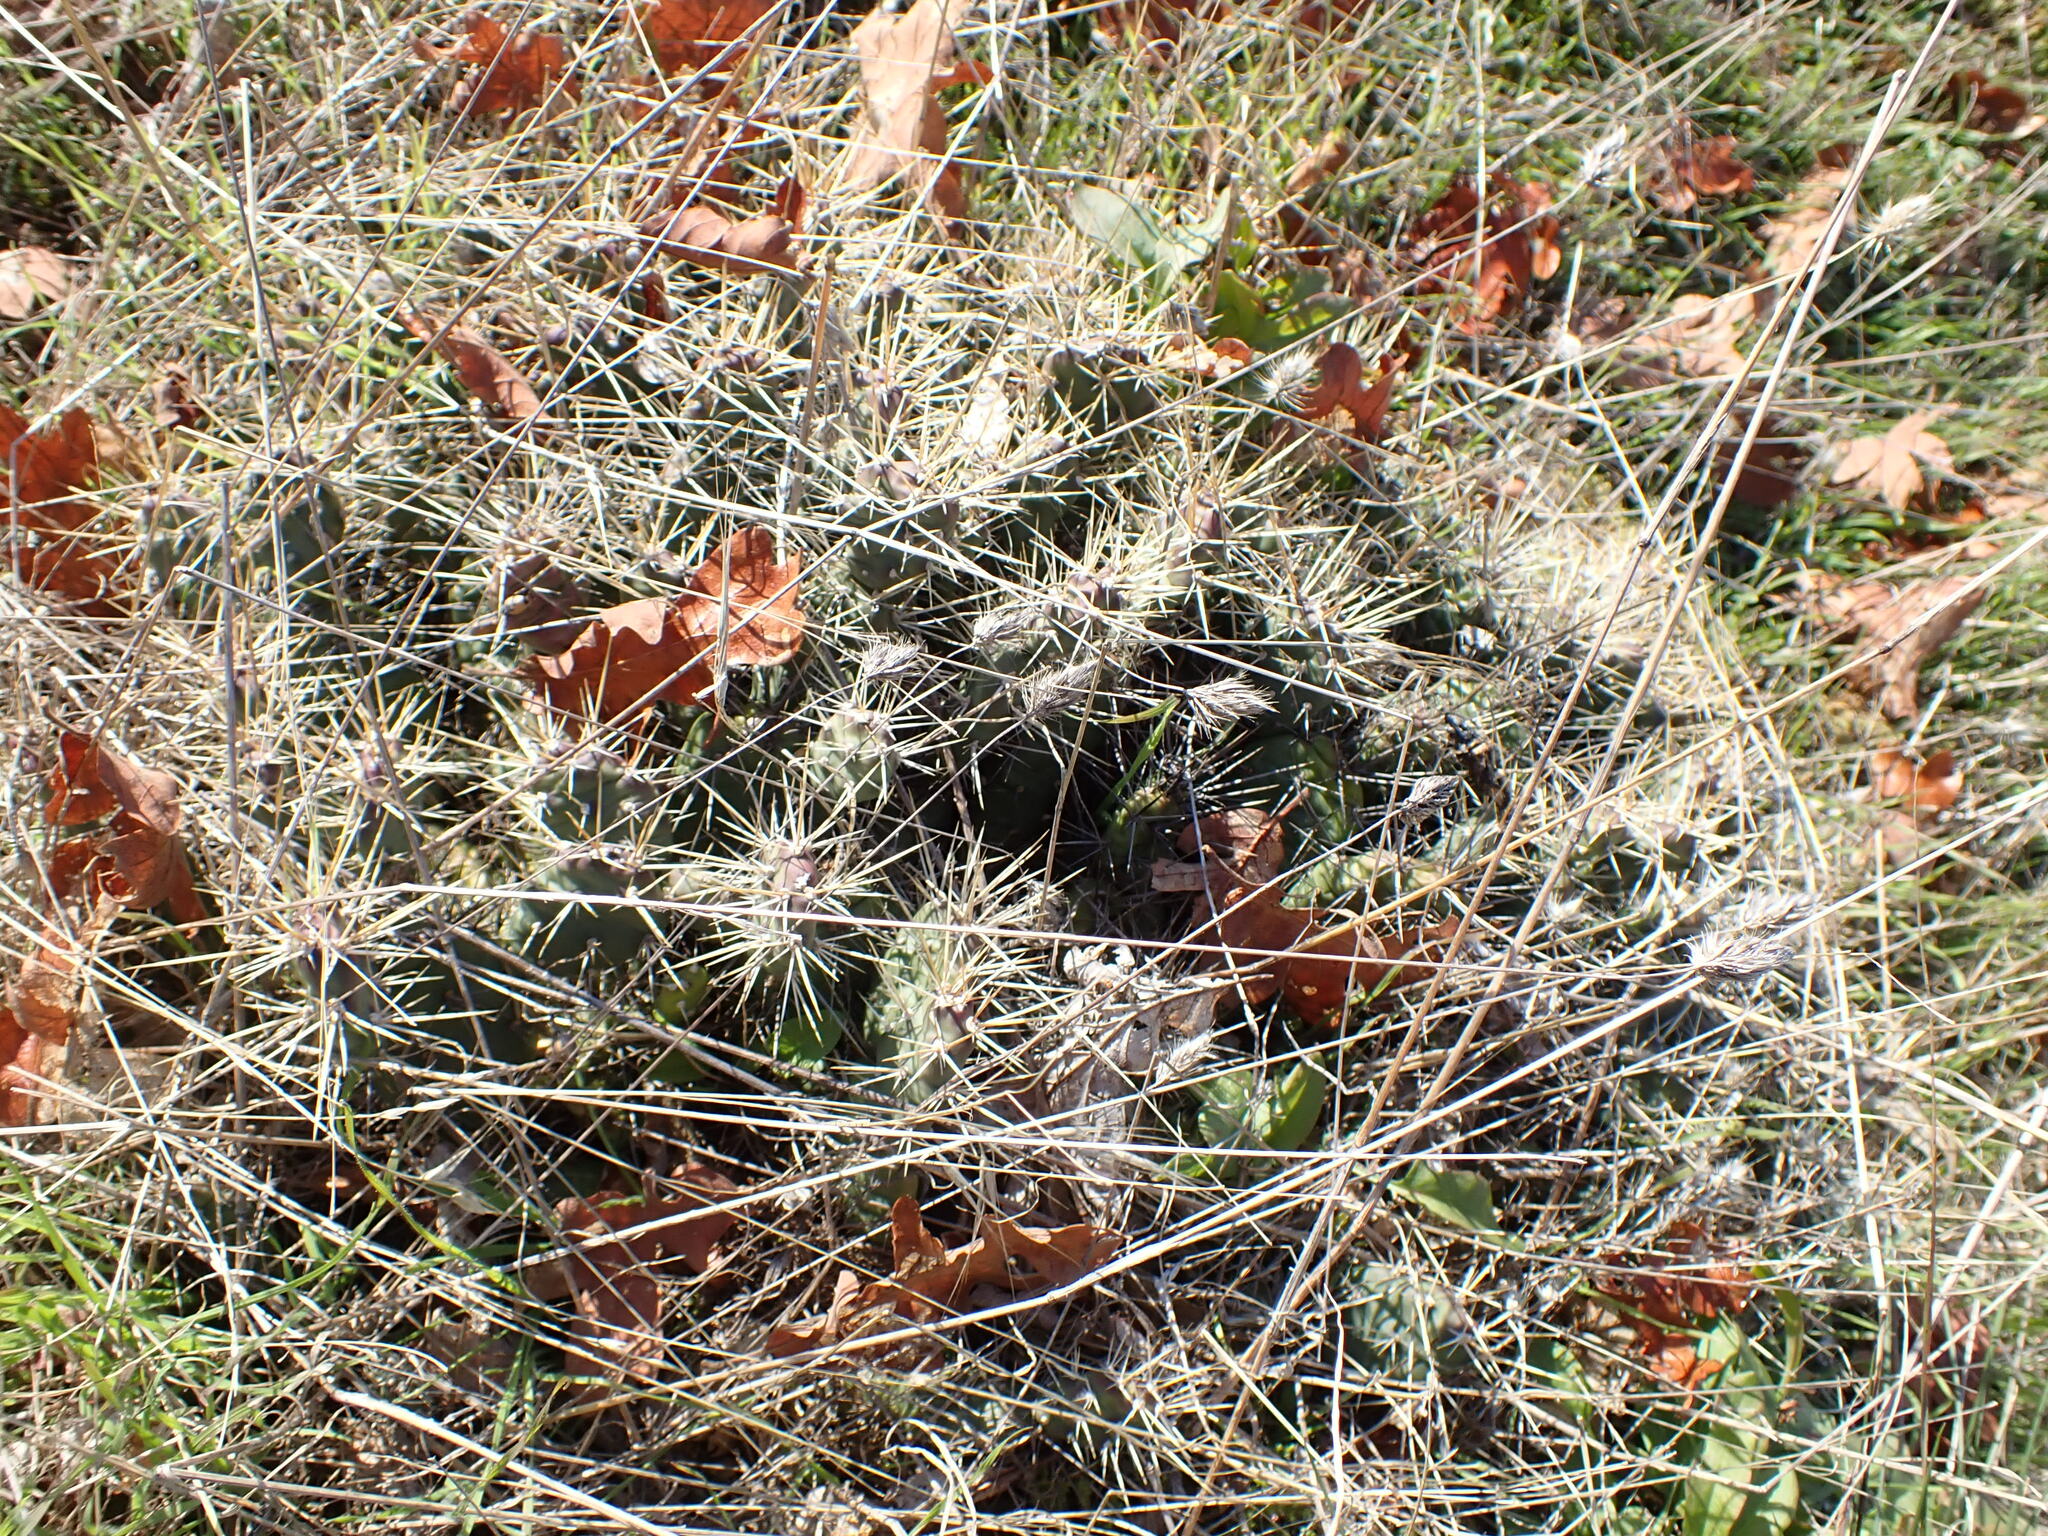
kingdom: Plantae
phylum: Tracheophyta
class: Magnoliopsida
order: Caryophyllales
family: Cactaceae
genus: Opuntia
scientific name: Opuntia fragilis
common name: Brittle cactus
